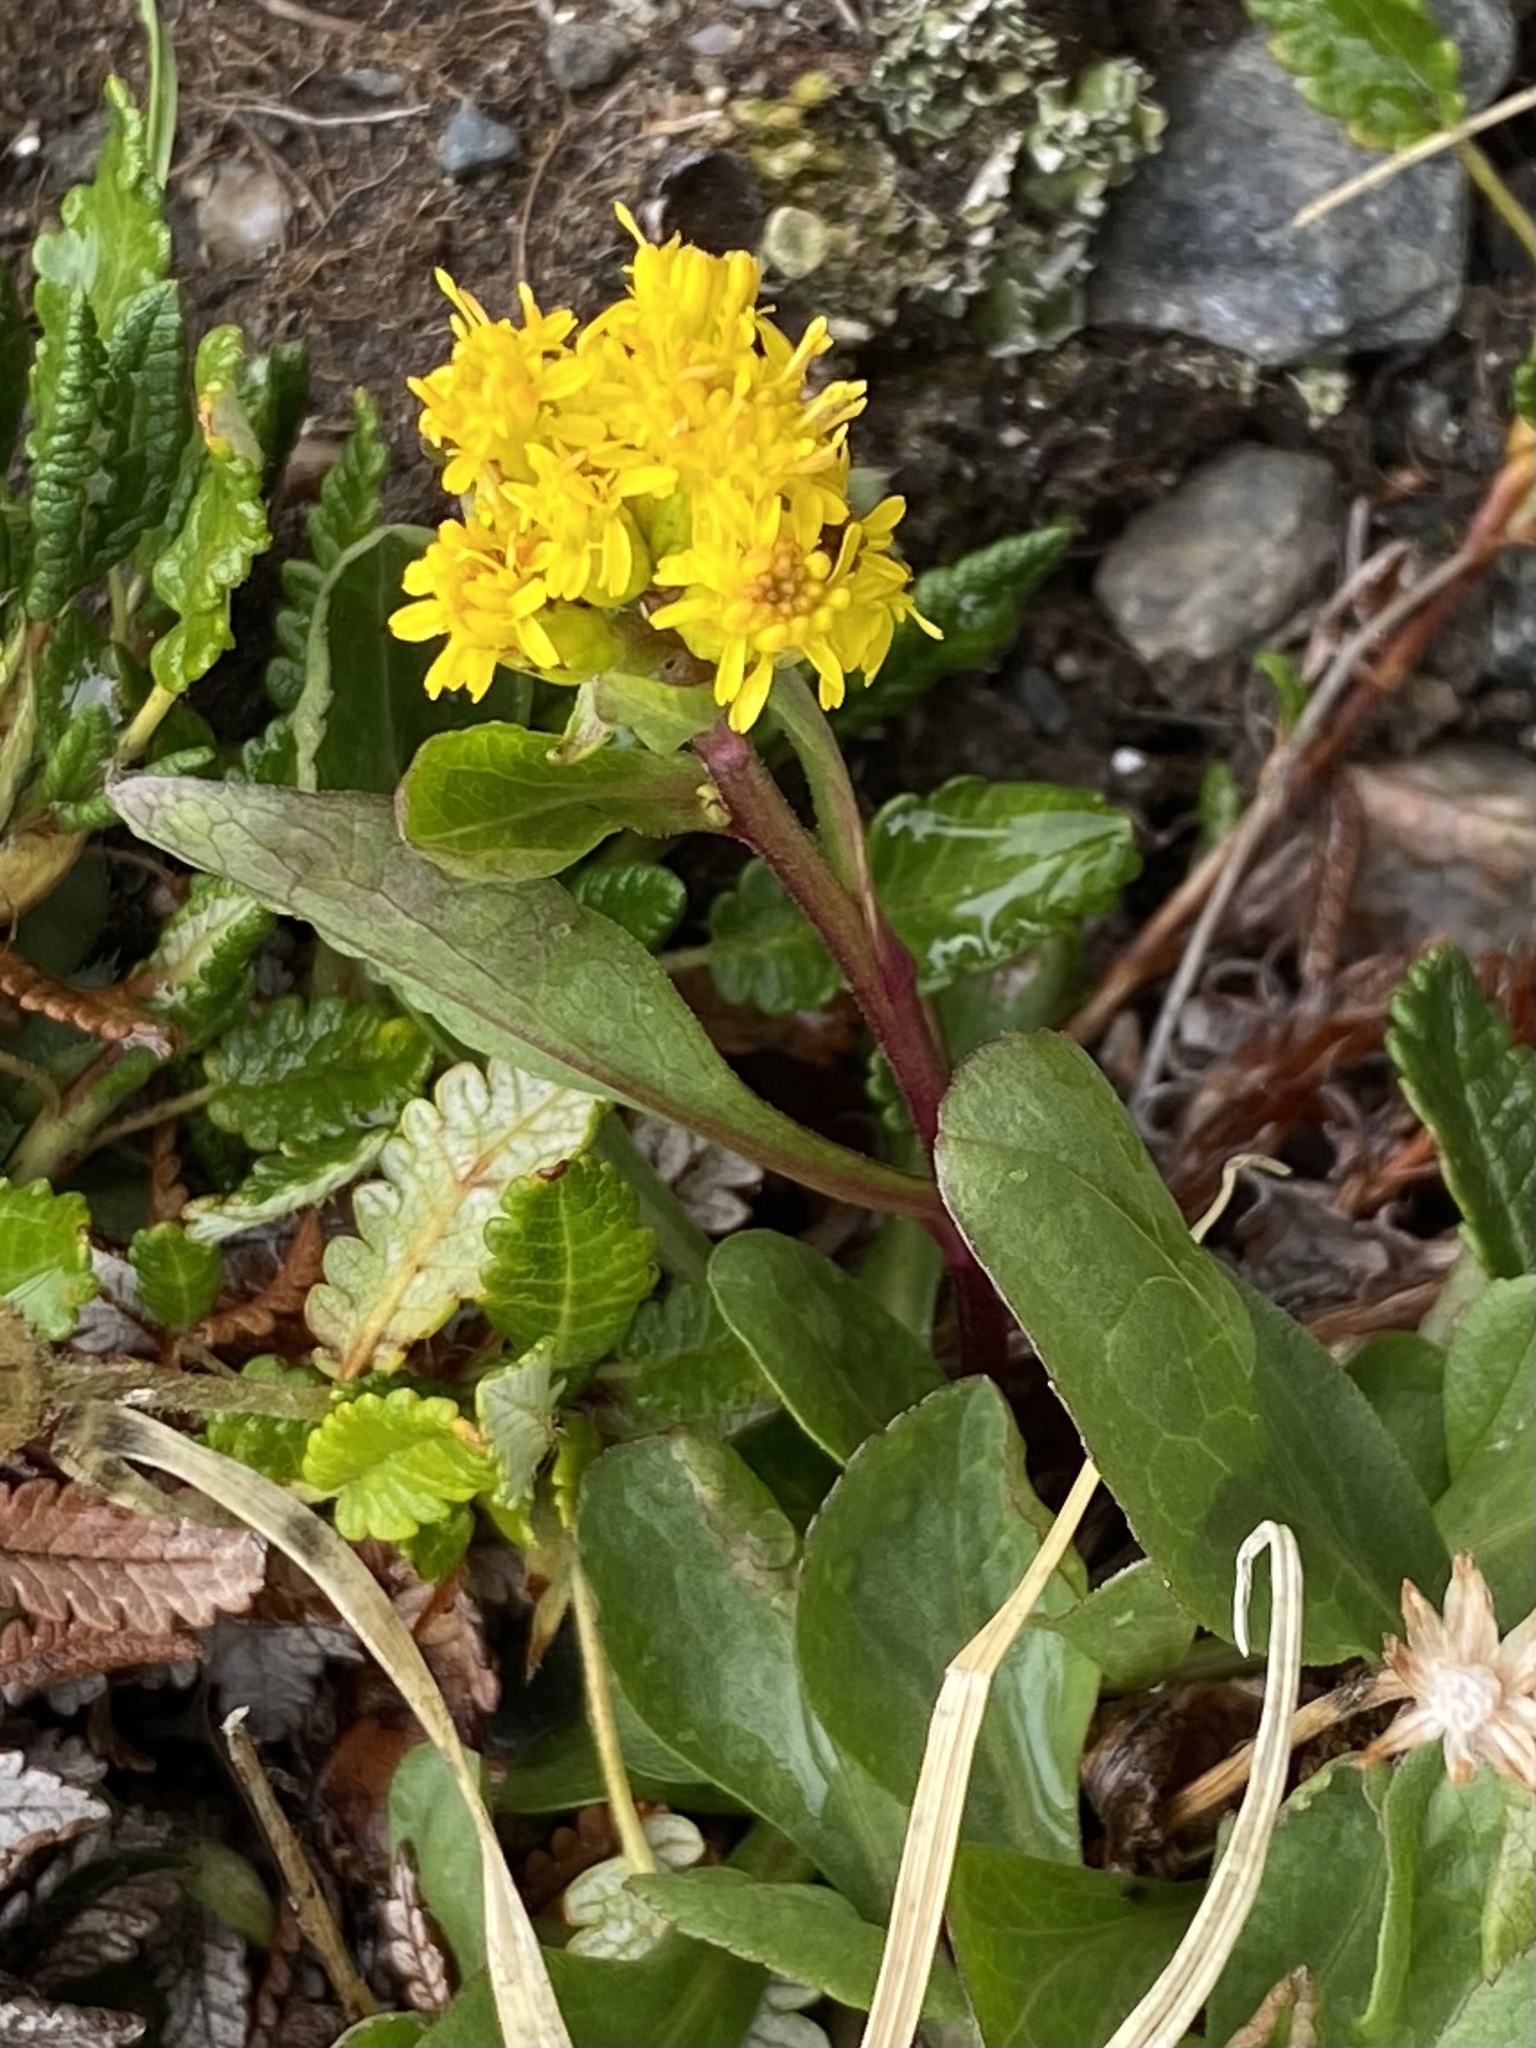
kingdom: Plantae
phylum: Tracheophyta
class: Magnoliopsida
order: Asterales
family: Asteraceae
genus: Solidago
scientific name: Solidago bellidifolia
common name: Alpine goldenrod
